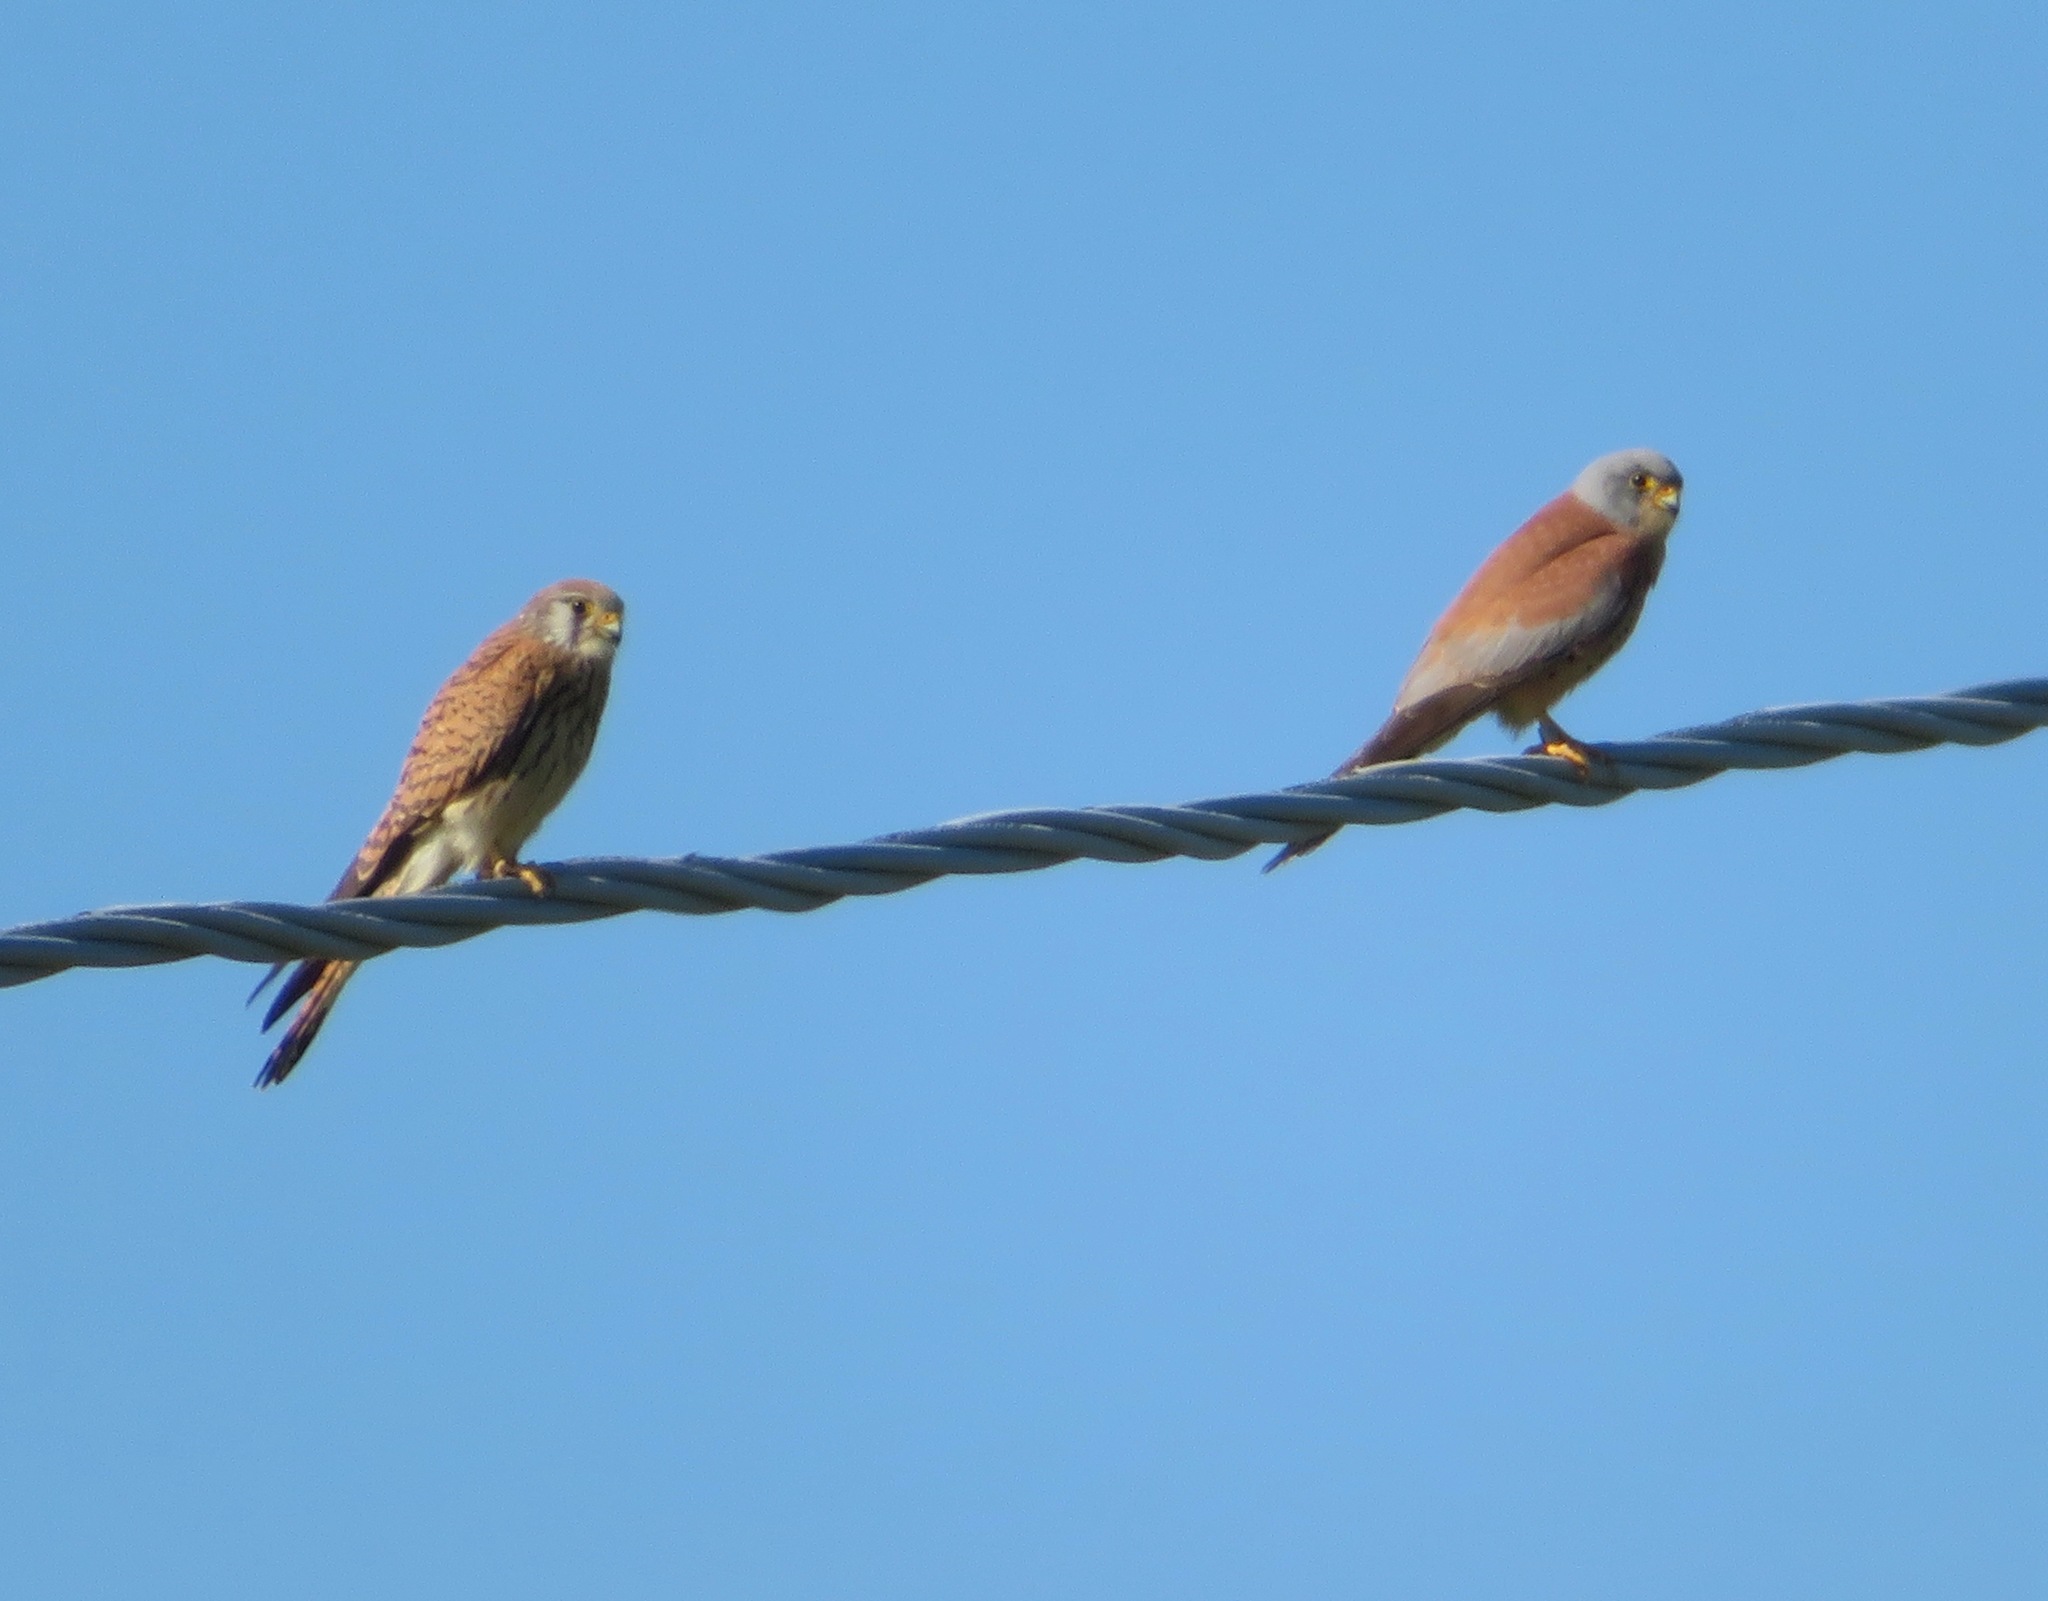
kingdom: Animalia
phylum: Chordata
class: Aves
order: Falconiformes
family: Falconidae
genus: Falco
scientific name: Falco naumanni
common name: Lesser kestrel
